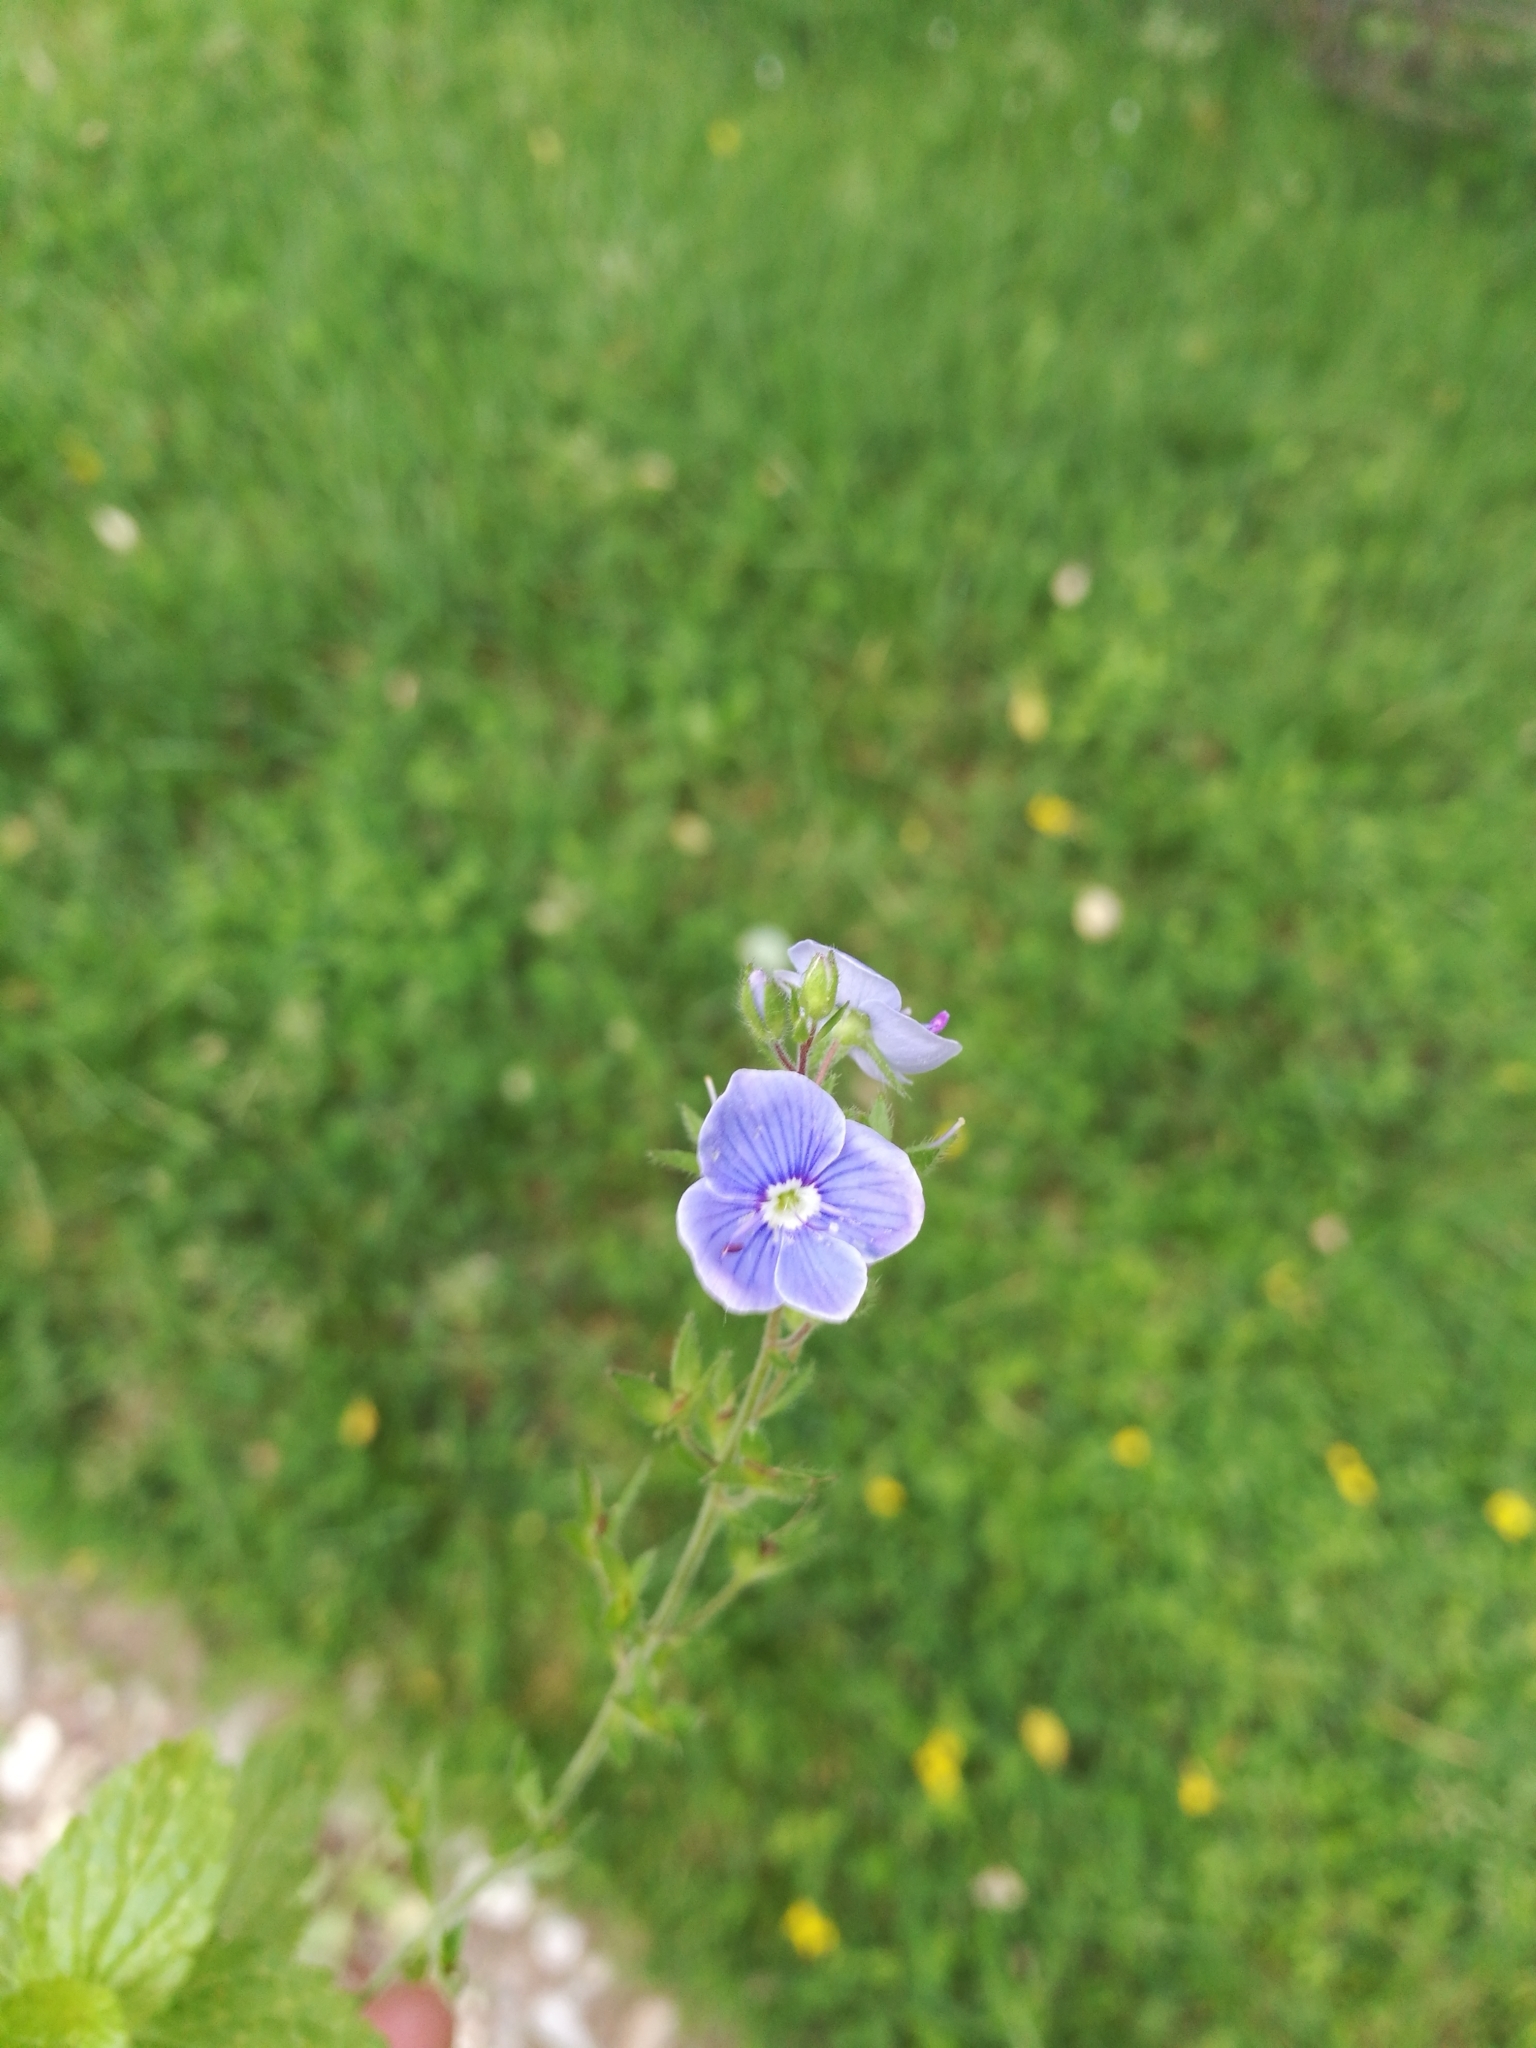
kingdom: Plantae
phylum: Tracheophyta
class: Magnoliopsida
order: Lamiales
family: Plantaginaceae
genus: Veronica
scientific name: Veronica chamaedrys
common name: Germander speedwell
